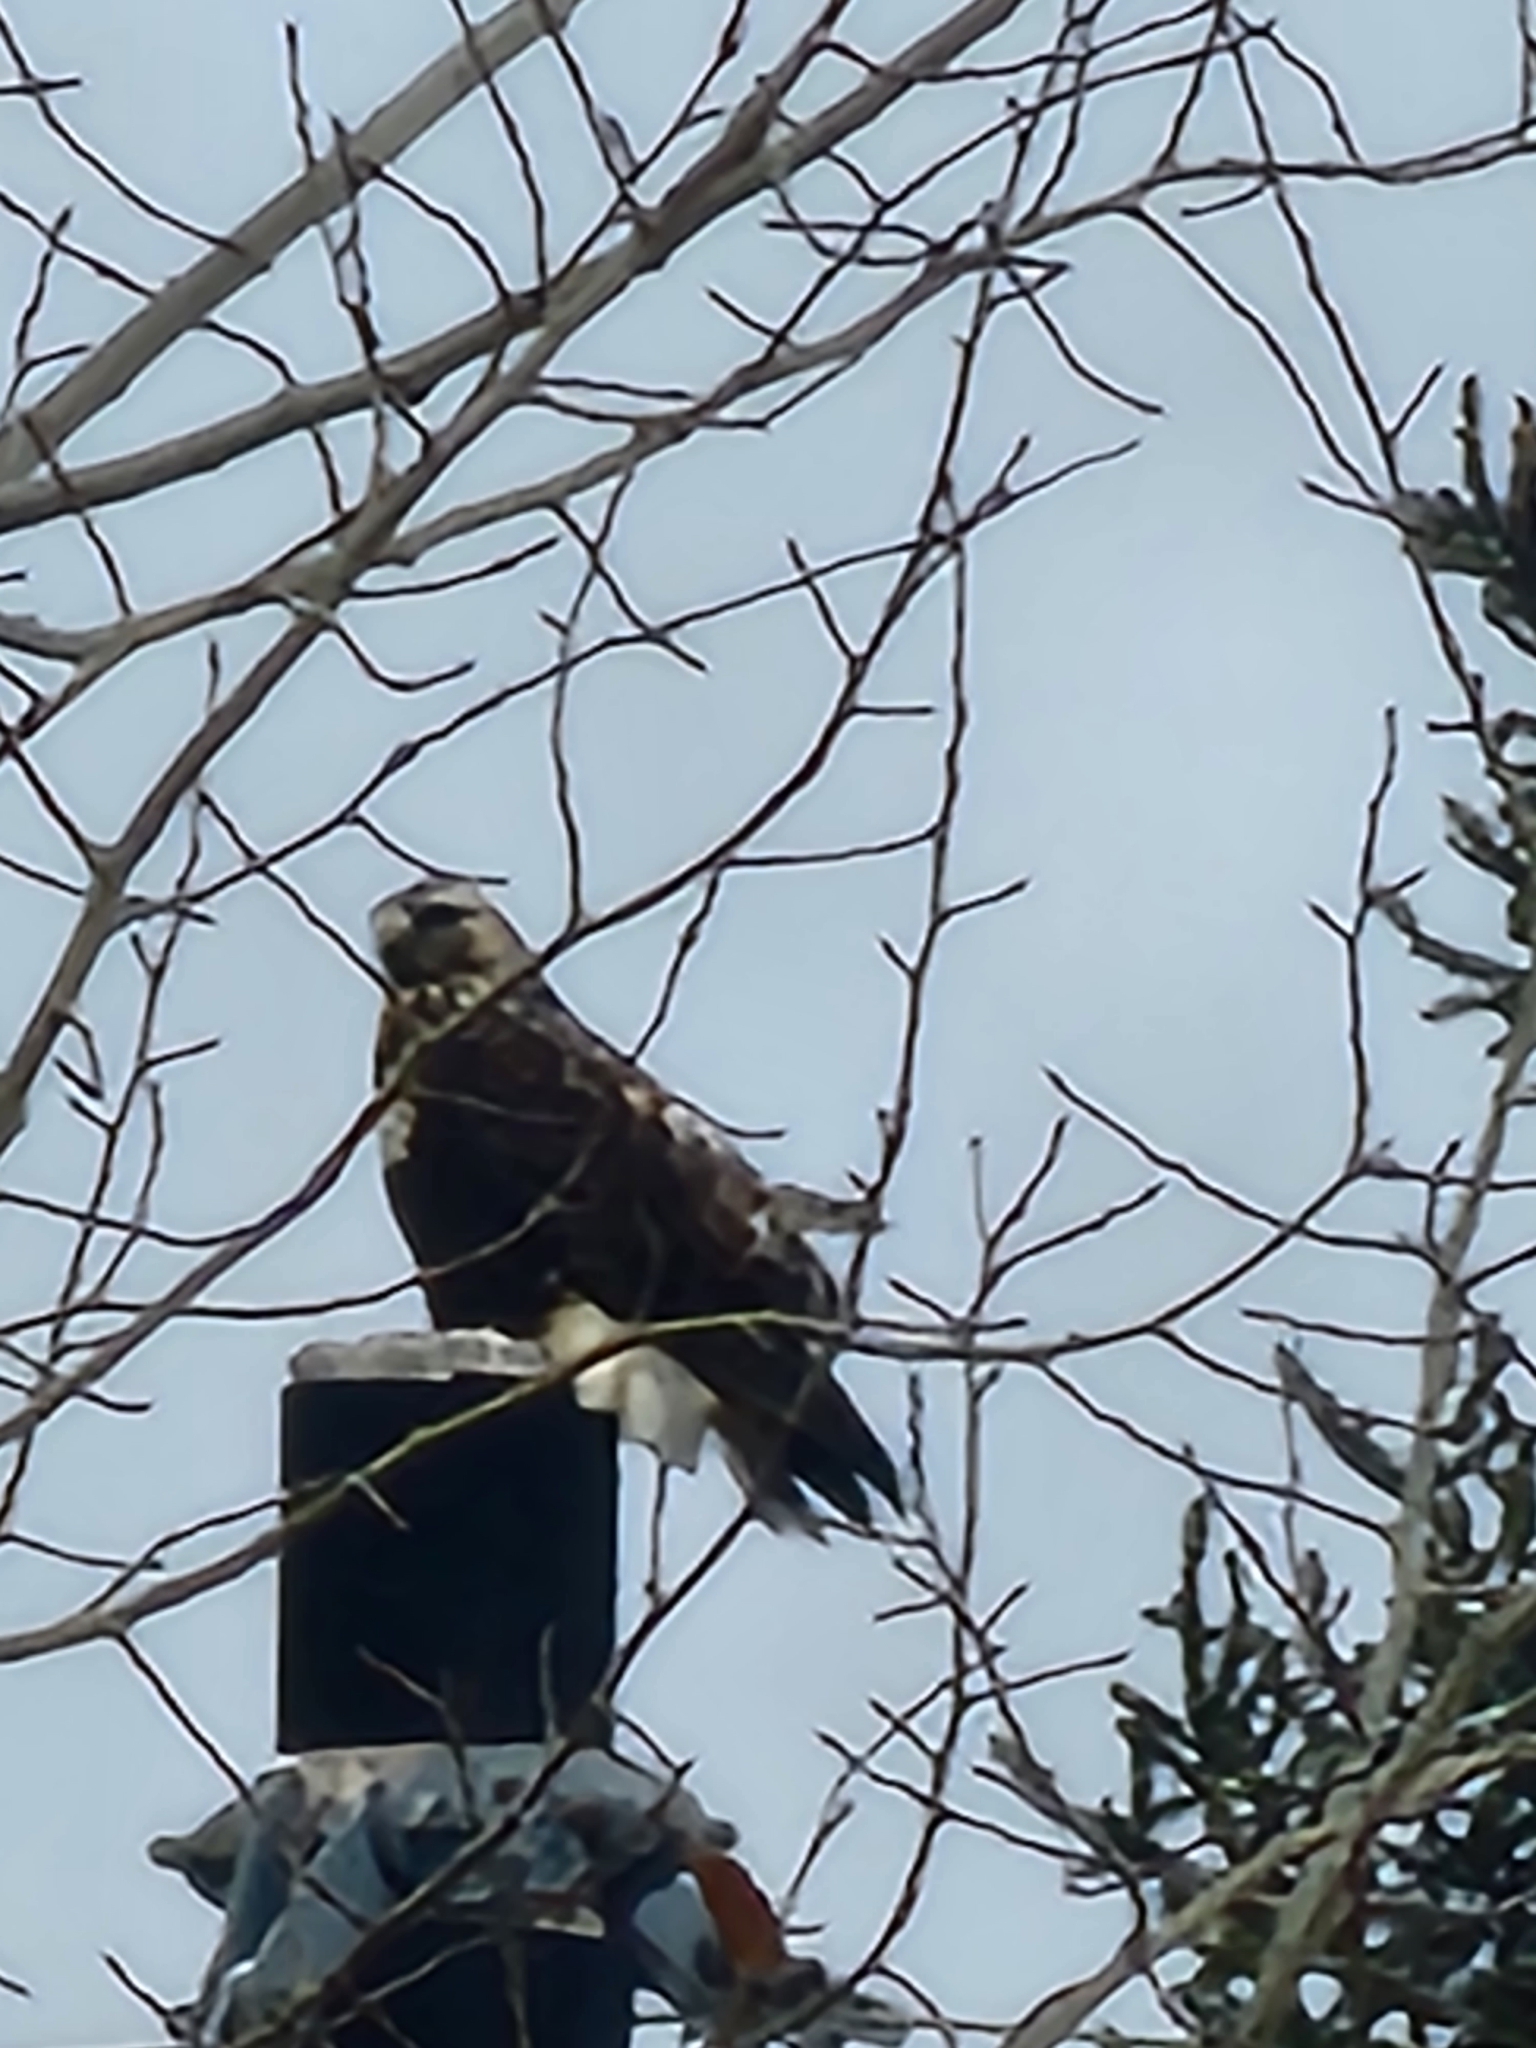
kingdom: Animalia
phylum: Chordata
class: Aves
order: Accipitriformes
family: Accipitridae
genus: Buteo
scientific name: Buteo lagopus
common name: Rough-legged buzzard
